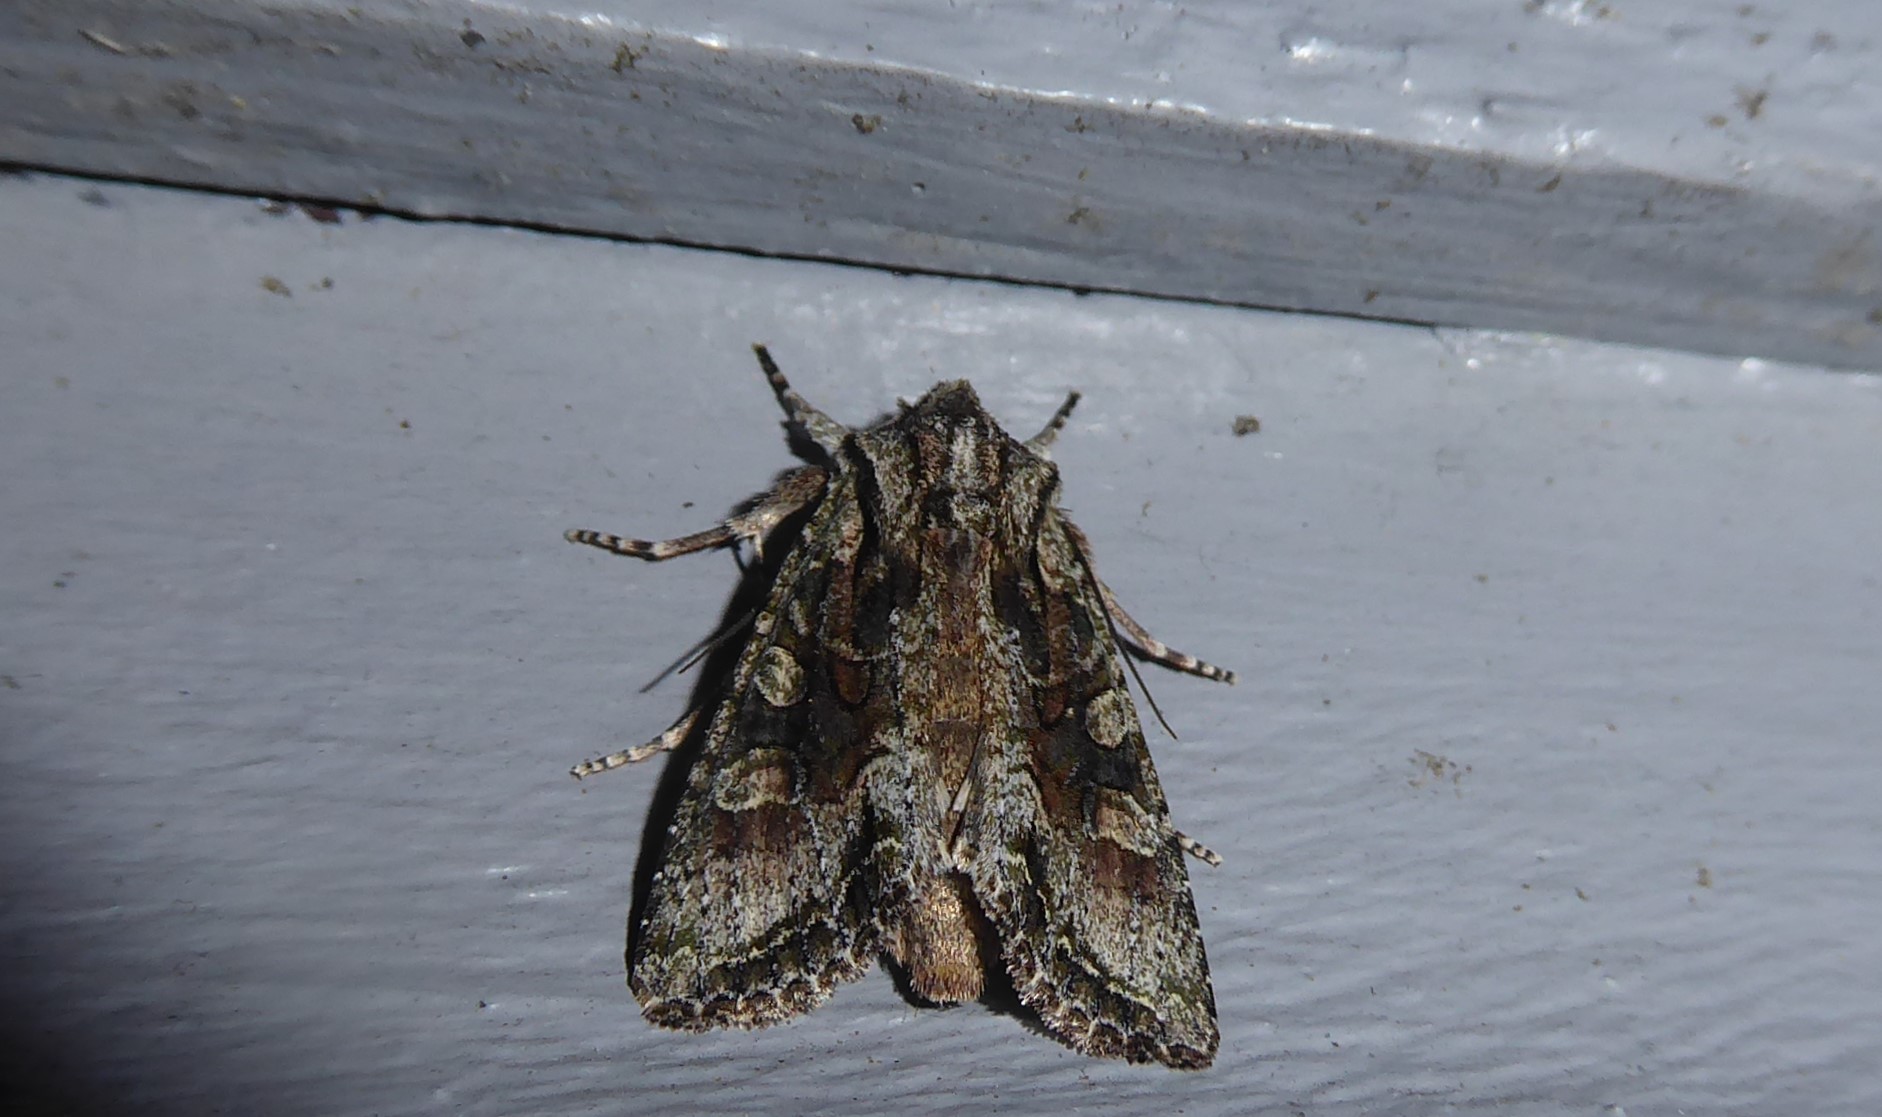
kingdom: Animalia
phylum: Arthropoda
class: Insecta
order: Lepidoptera
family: Noctuidae
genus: Ichneutica
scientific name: Ichneutica mutans
